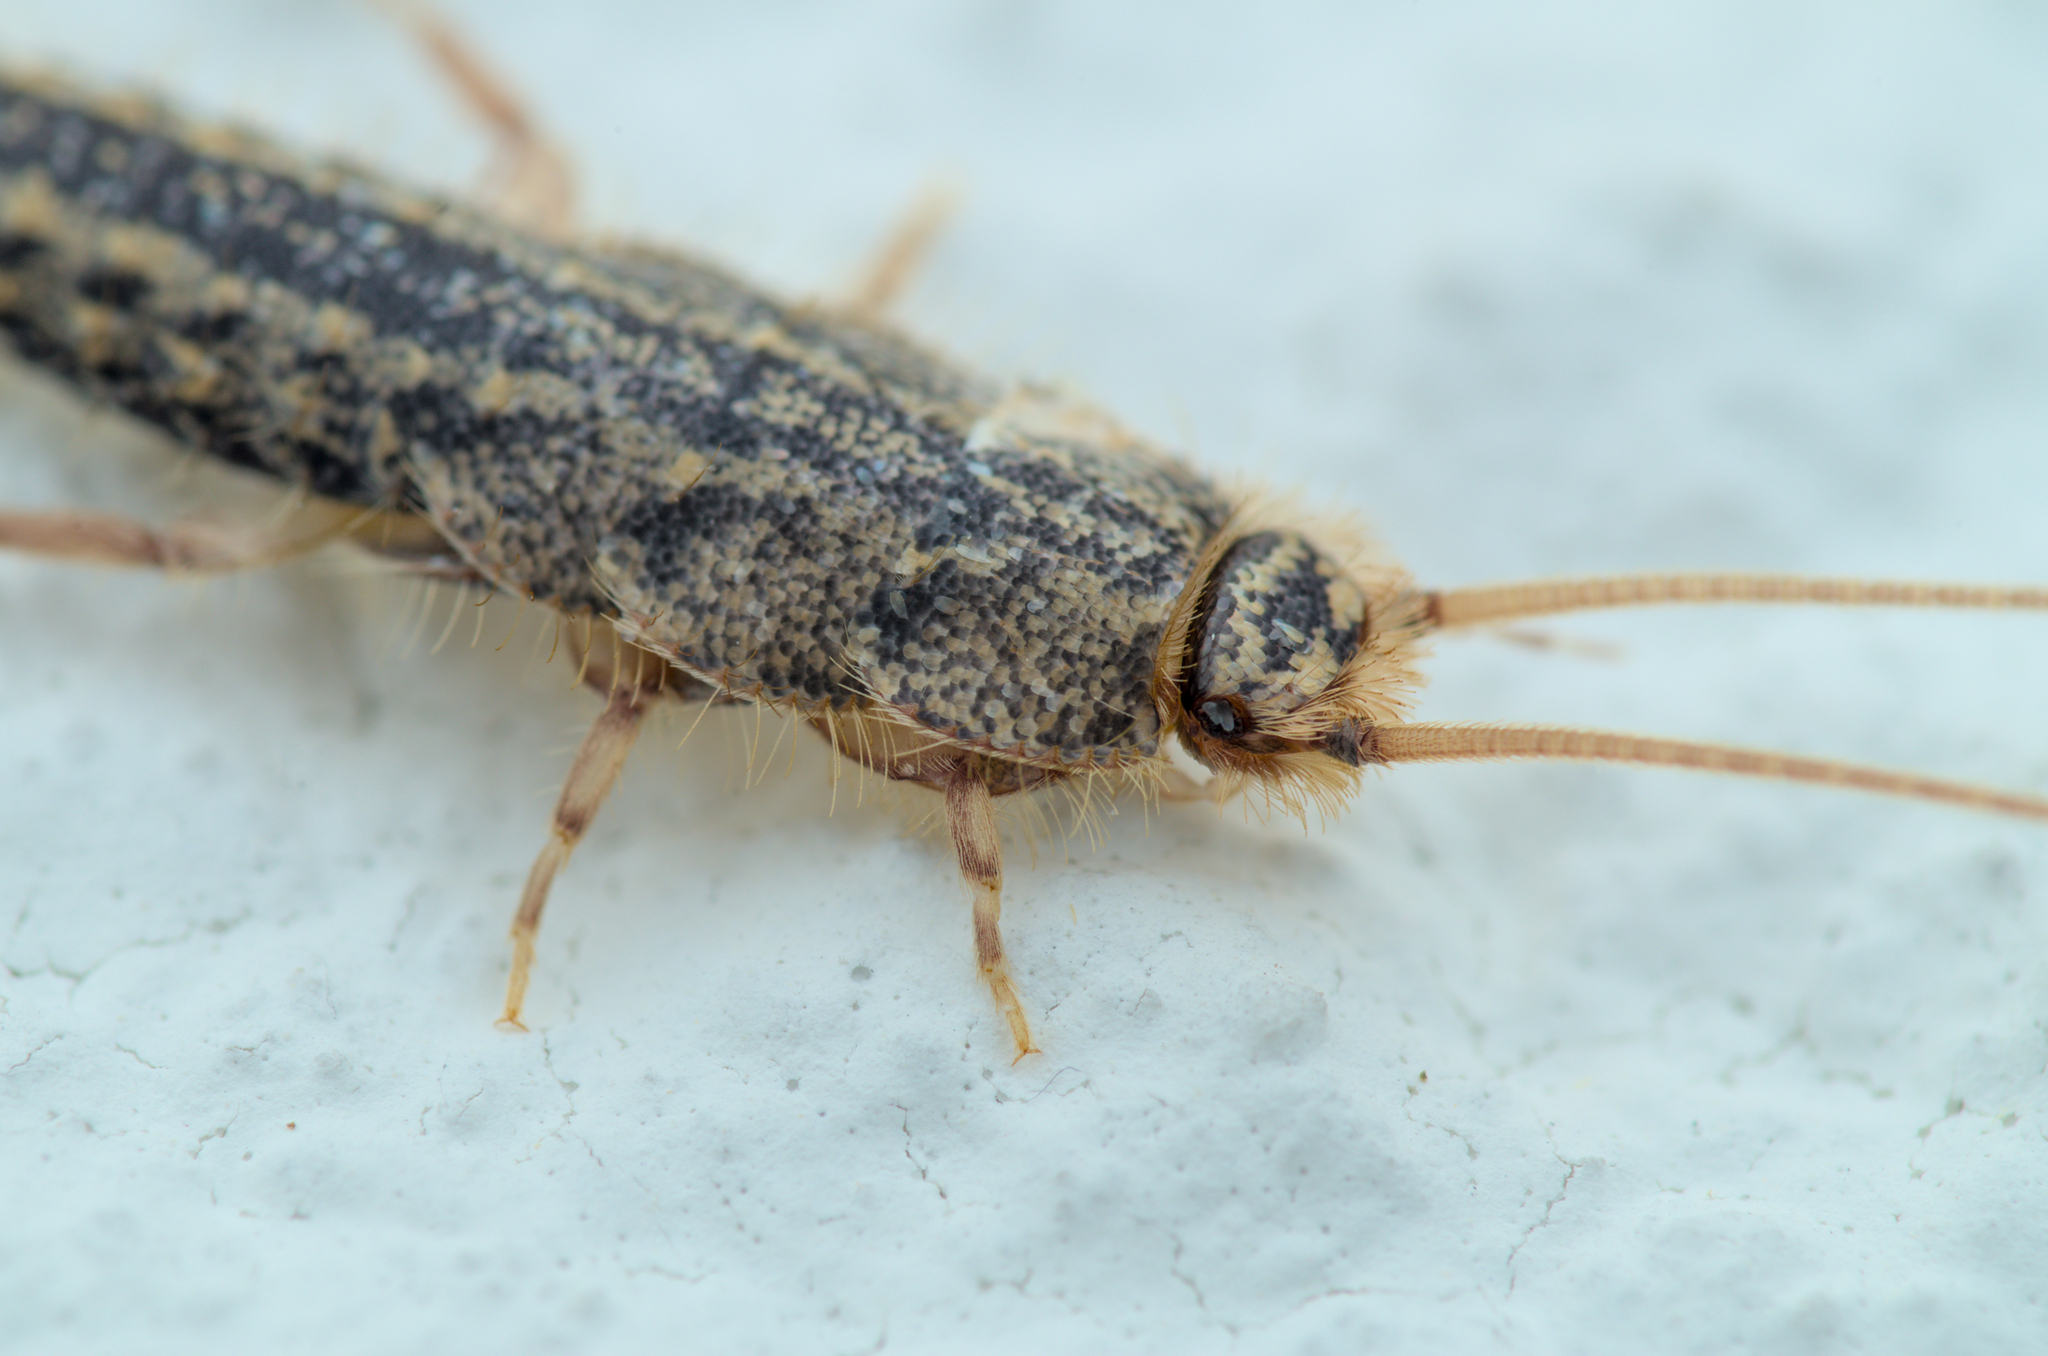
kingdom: Animalia
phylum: Arthropoda
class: Insecta
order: Zygentoma
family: Lepismatidae
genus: Ctenolepisma
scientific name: Ctenolepisma lineata
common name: Four-lined silverfish
